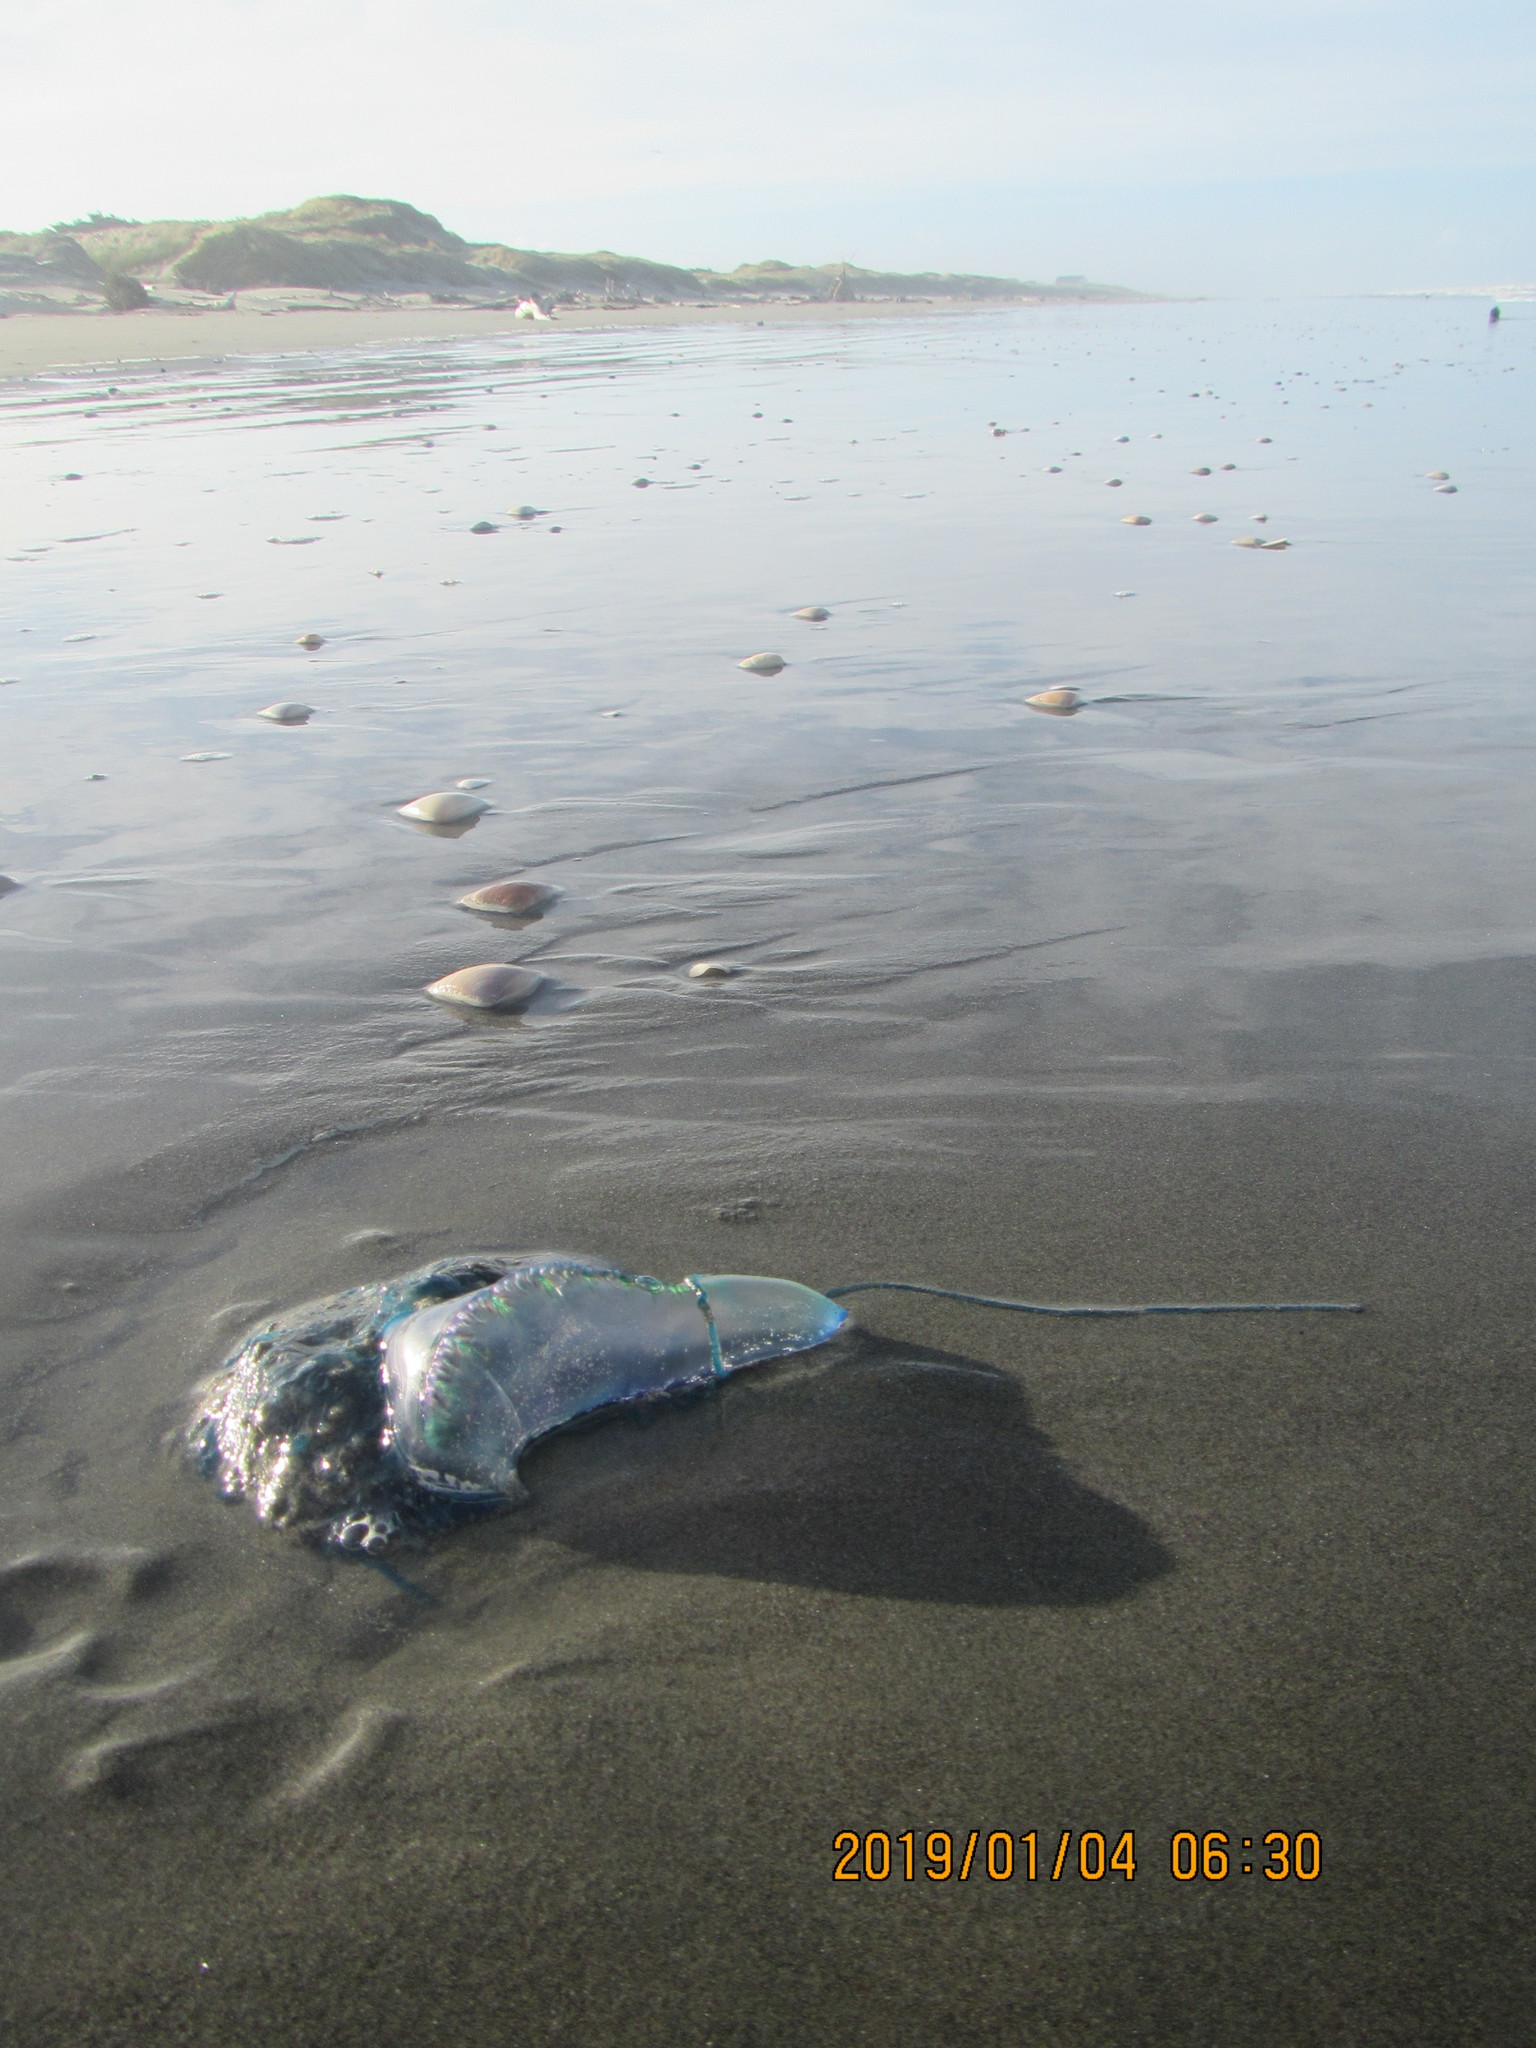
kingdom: Animalia
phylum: Cnidaria
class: Hydrozoa
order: Siphonophorae
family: Physaliidae
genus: Physalia
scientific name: Physalia physalis
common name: Portuguese man-of-war
